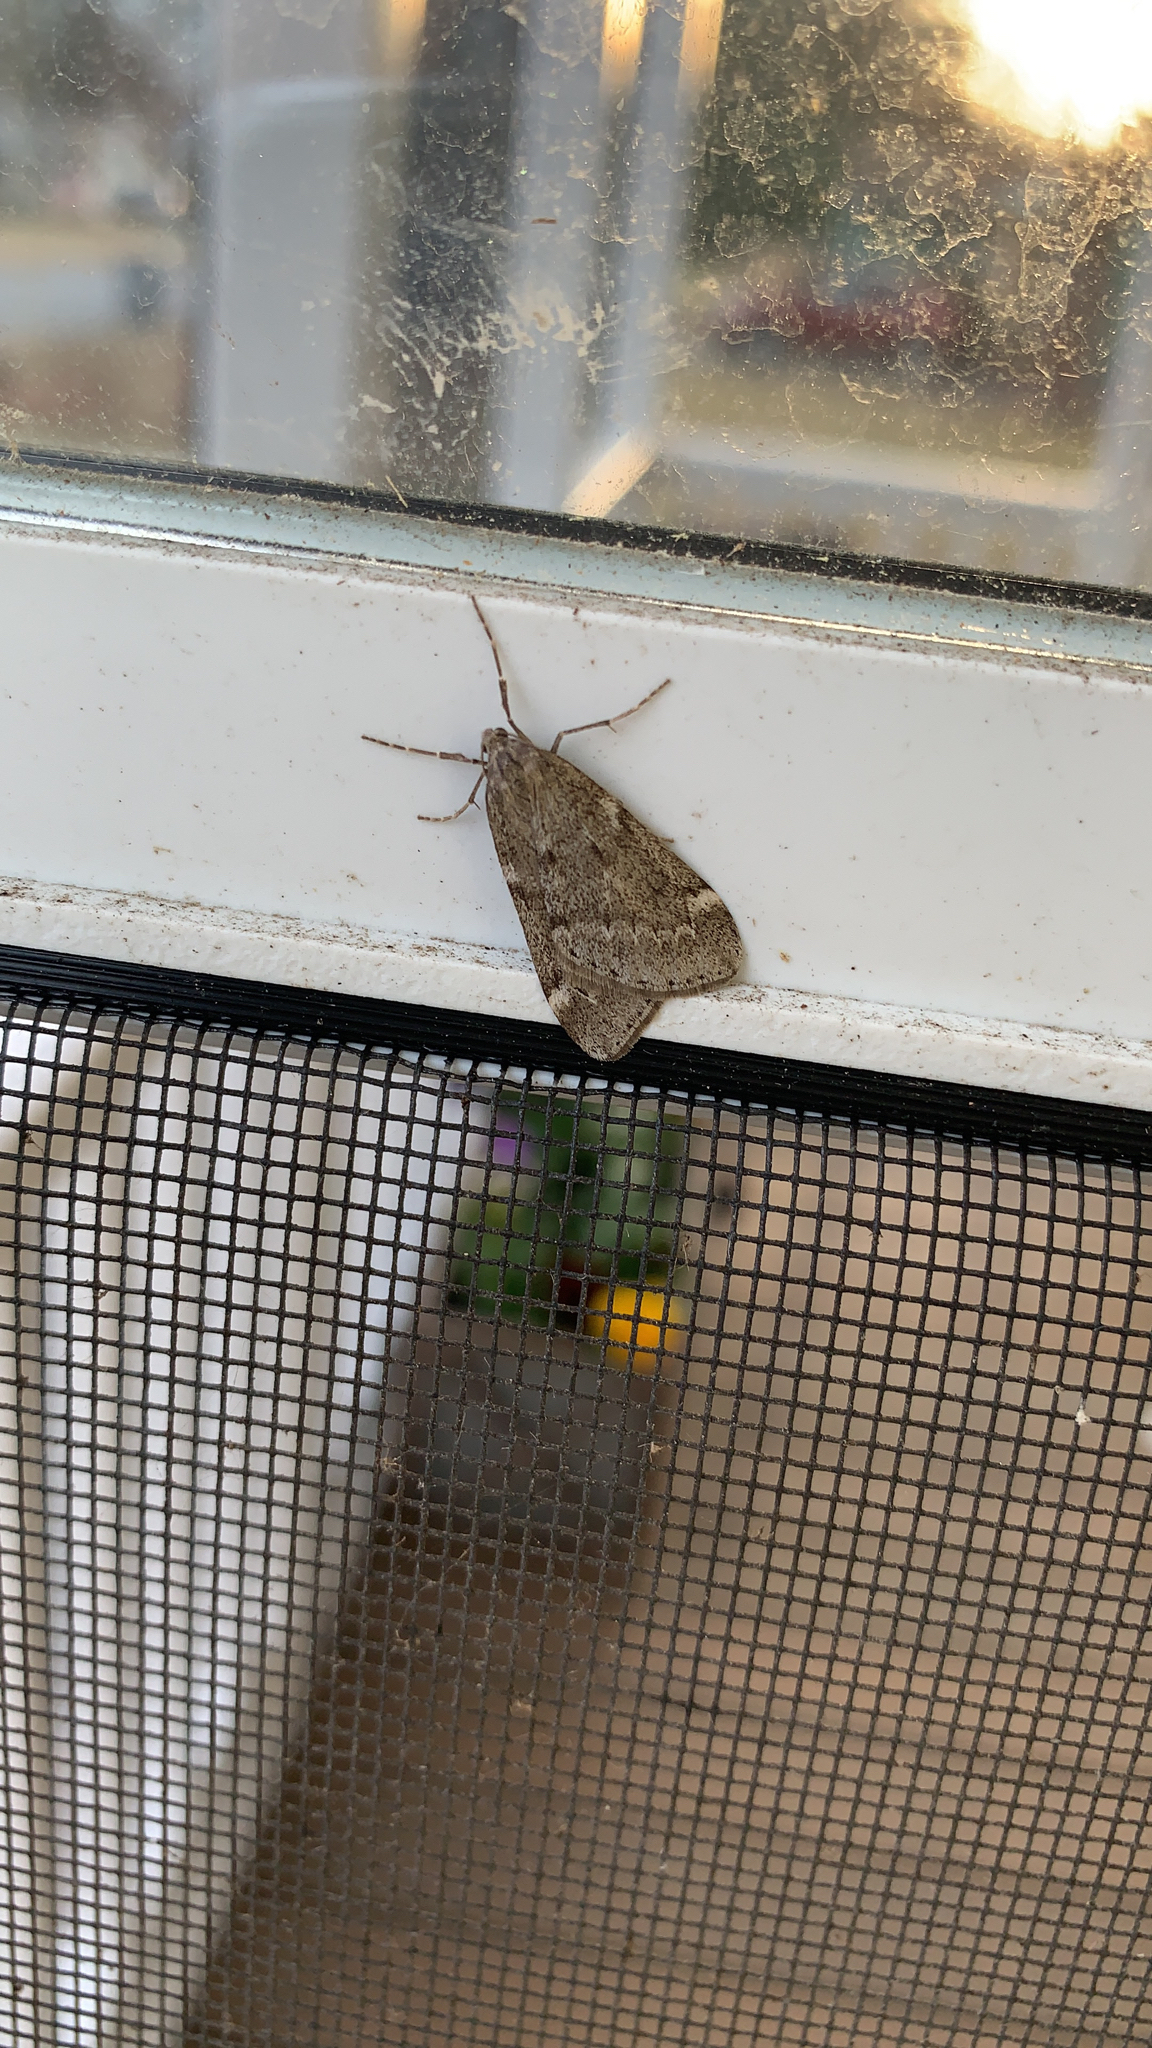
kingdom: Animalia
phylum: Arthropoda
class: Insecta
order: Lepidoptera
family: Geometridae
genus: Alsophila
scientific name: Alsophila pometaria
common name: Fall cankerworm
